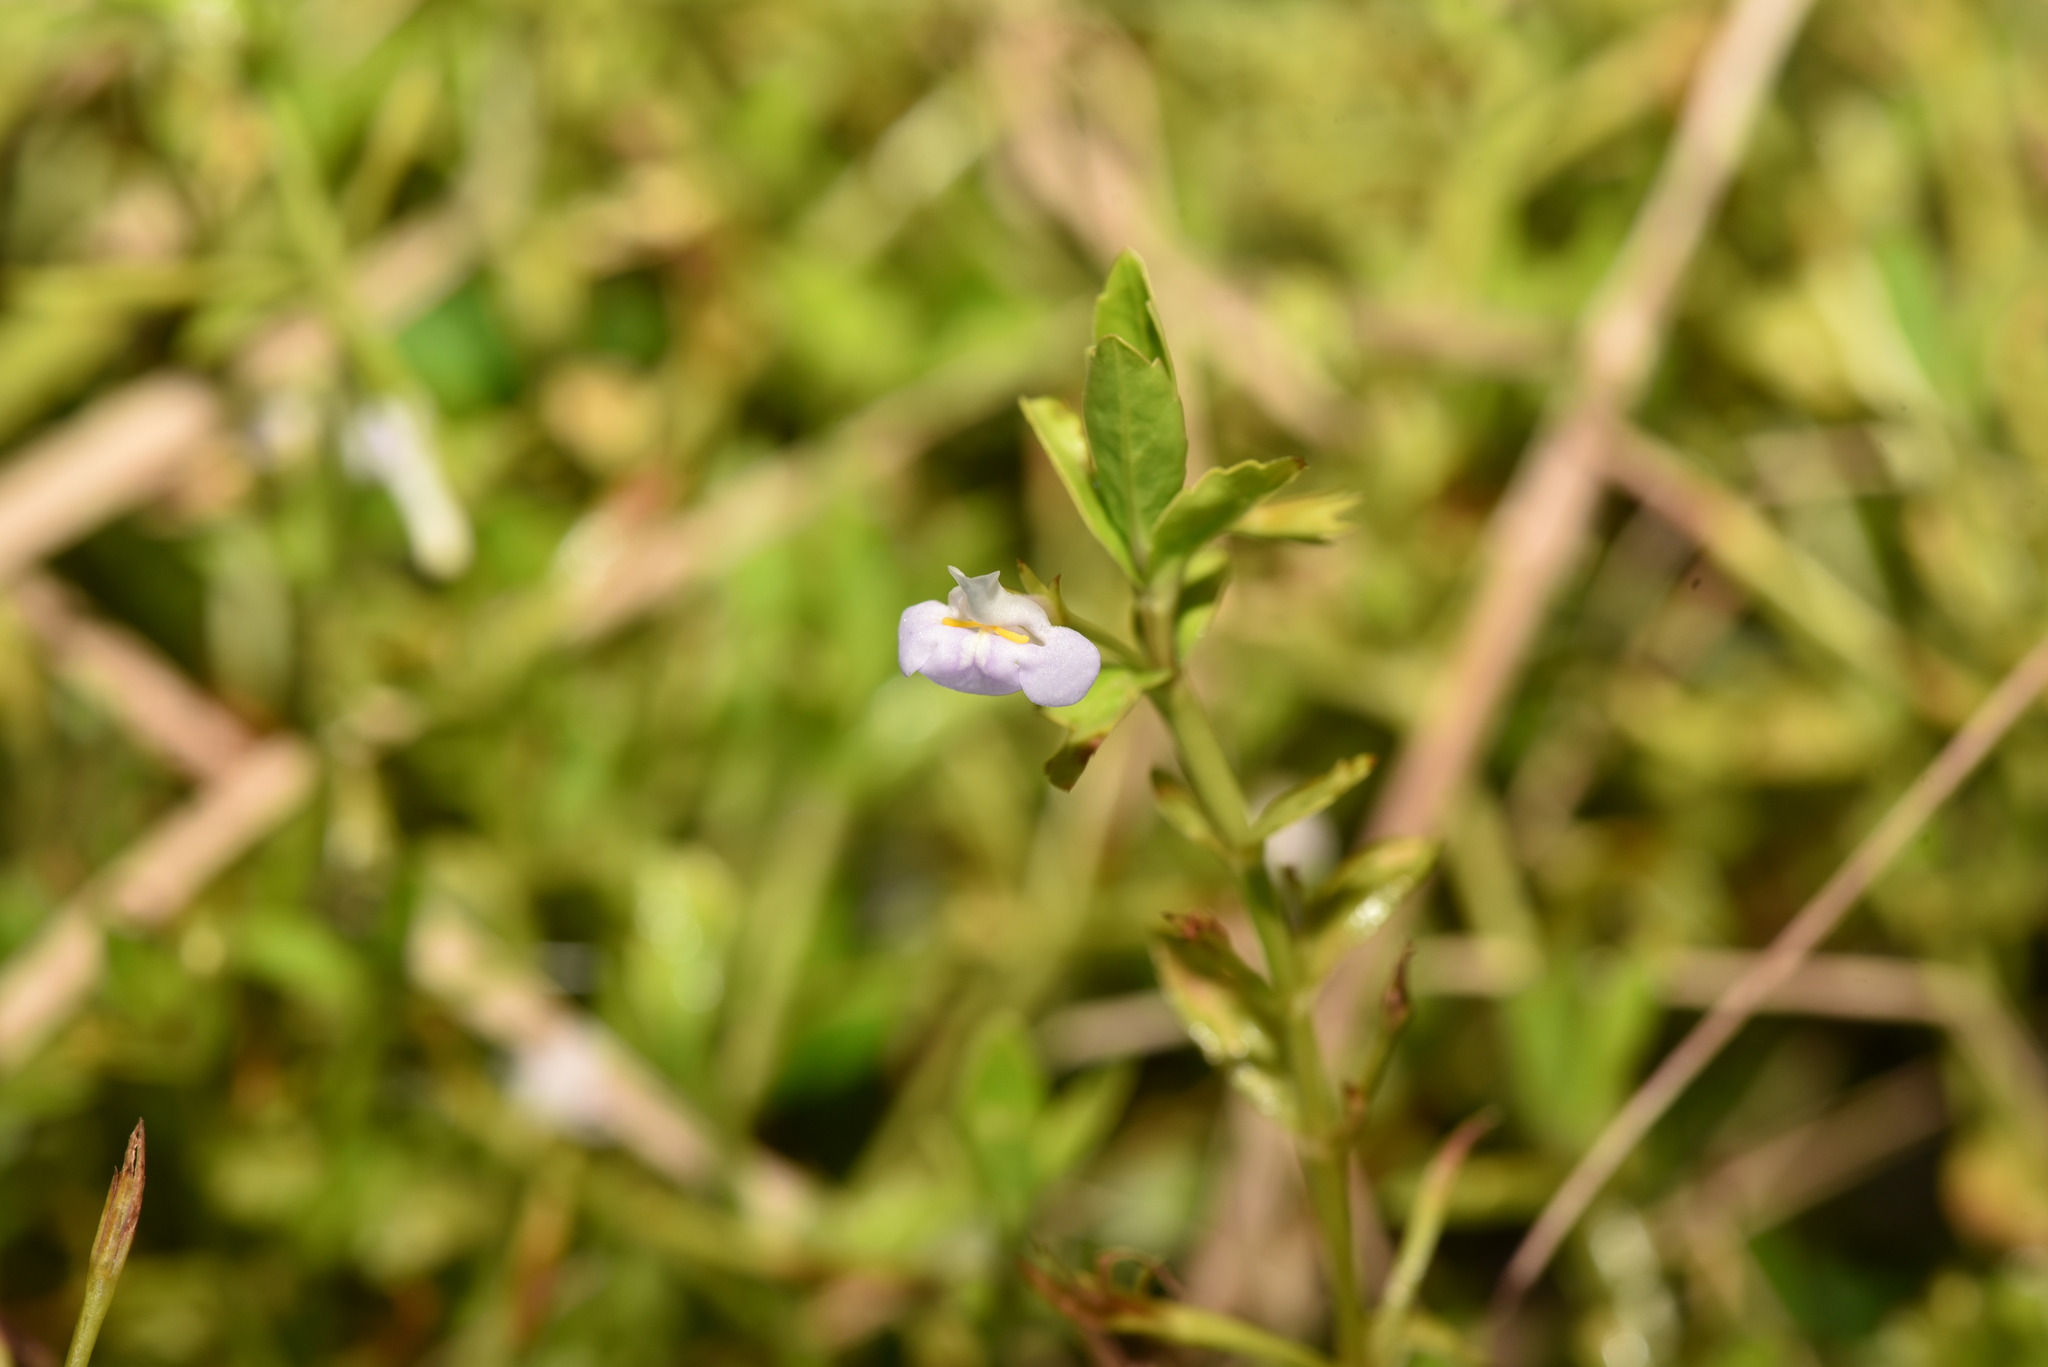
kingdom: Plantae
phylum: Tracheophyta
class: Magnoliopsida
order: Lamiales
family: Linderniaceae
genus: Bonnaya
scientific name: Bonnaya antipoda
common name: Sparrow false pimpernel
